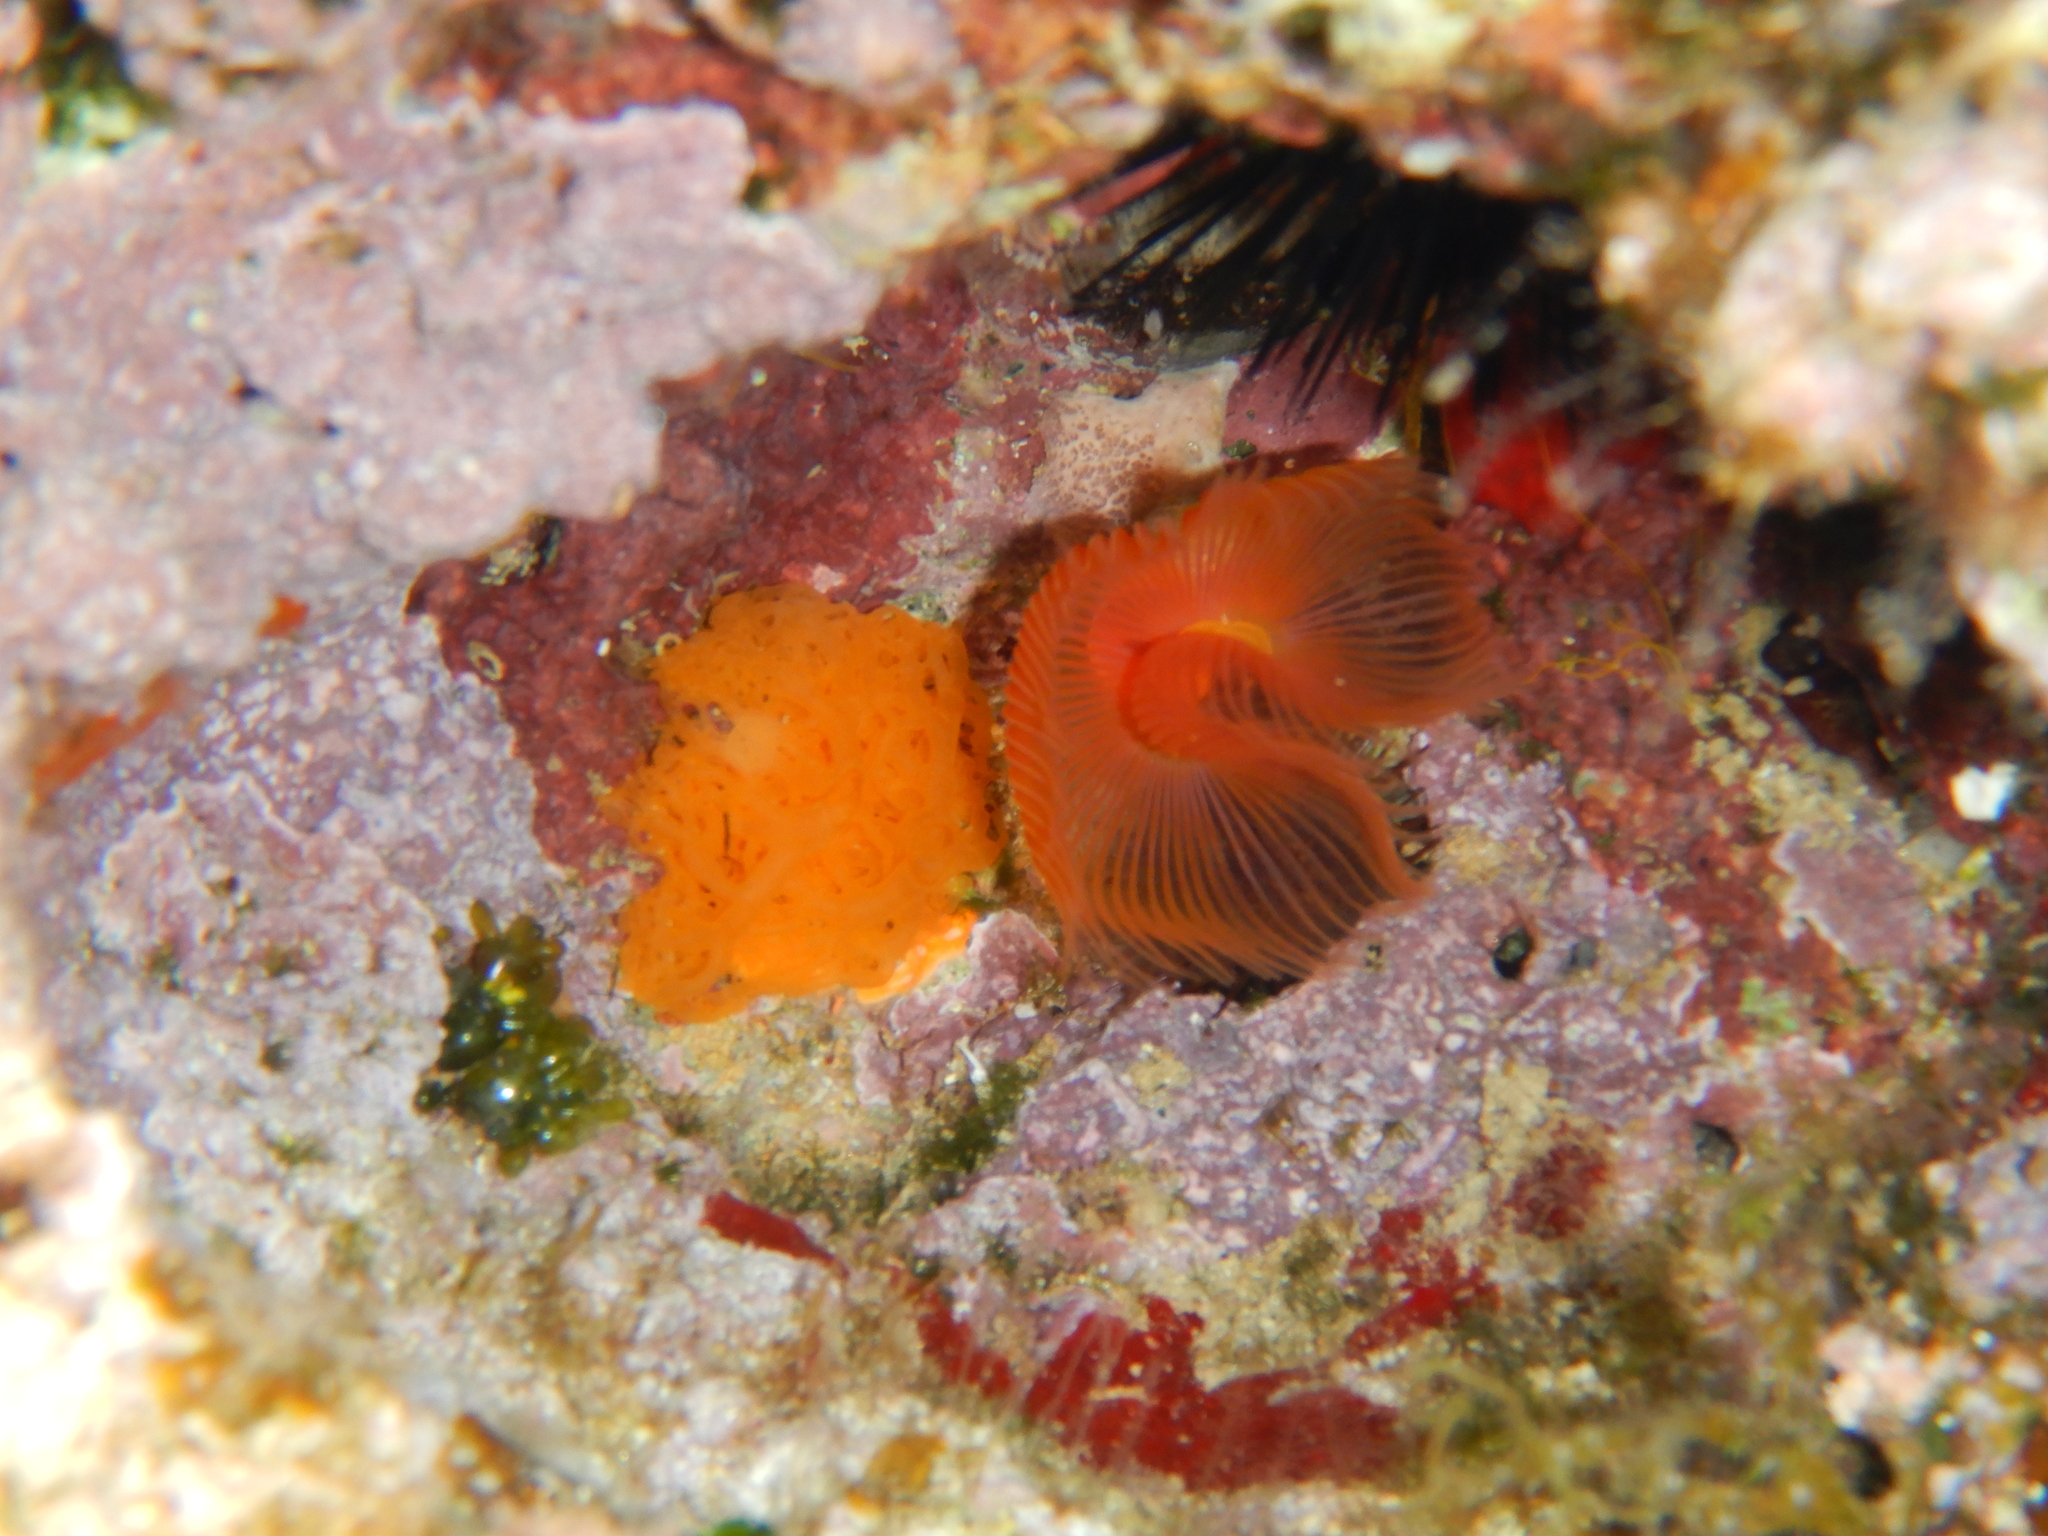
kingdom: Animalia
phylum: Annelida
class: Polychaeta
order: Sabellida
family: Serpulidae
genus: Protula
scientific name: Protula tubularia
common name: Red-spotted horseshoe
